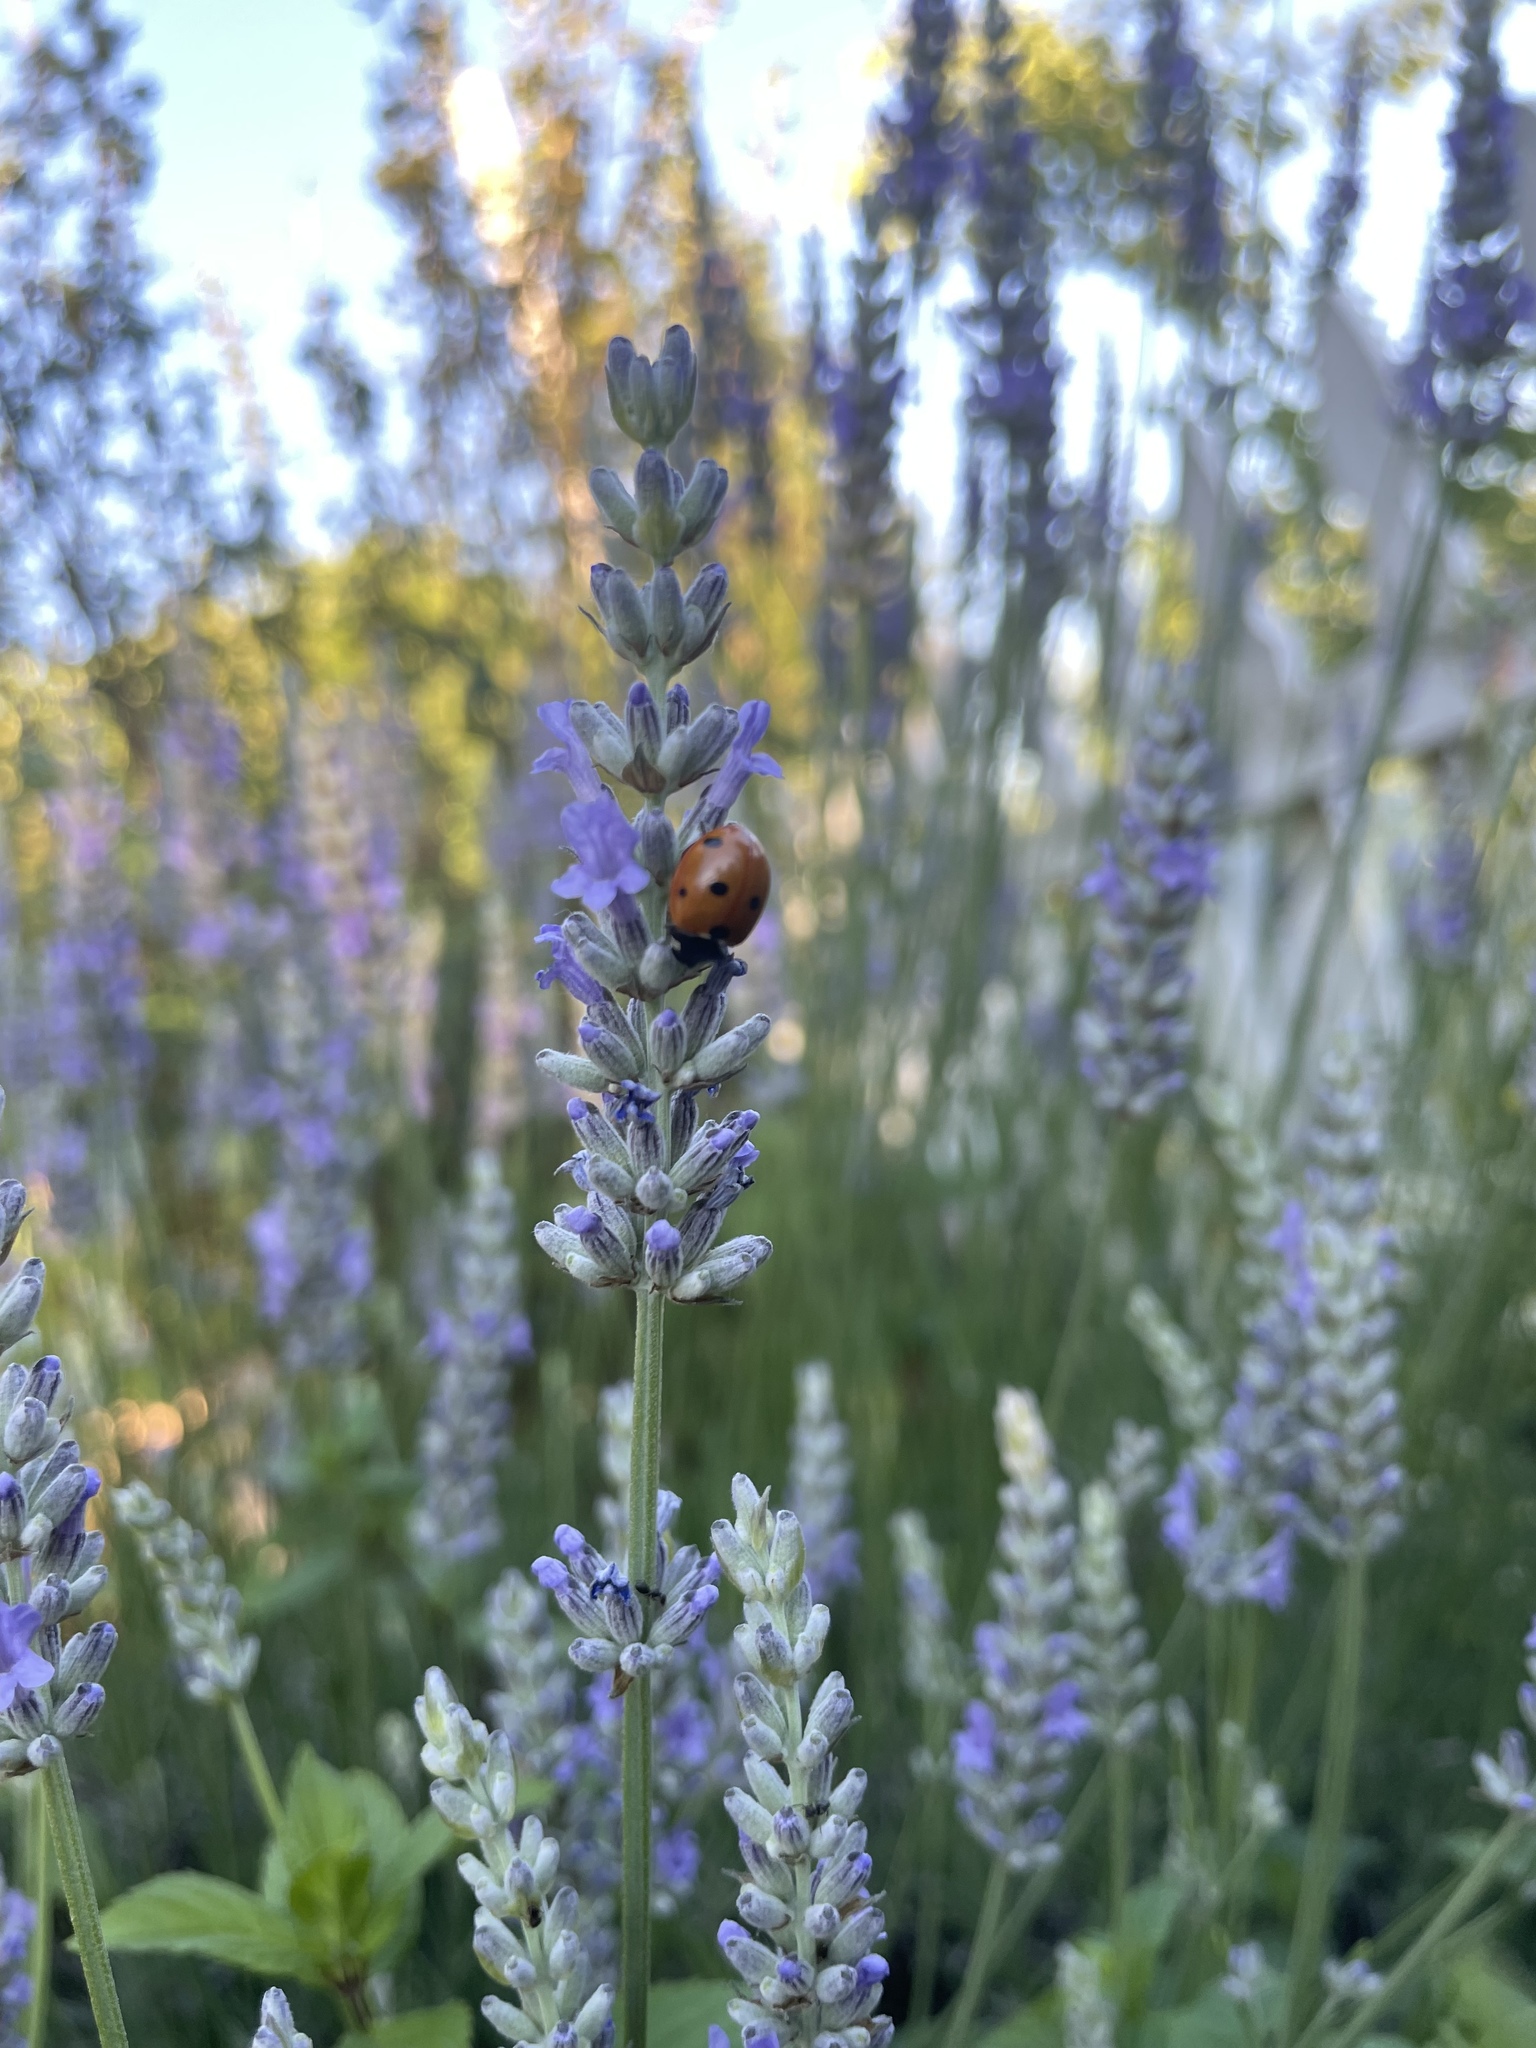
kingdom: Animalia
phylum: Arthropoda
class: Insecta
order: Coleoptera
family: Coccinellidae
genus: Coccinella
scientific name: Coccinella septempunctata
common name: Sevenspotted lady beetle
